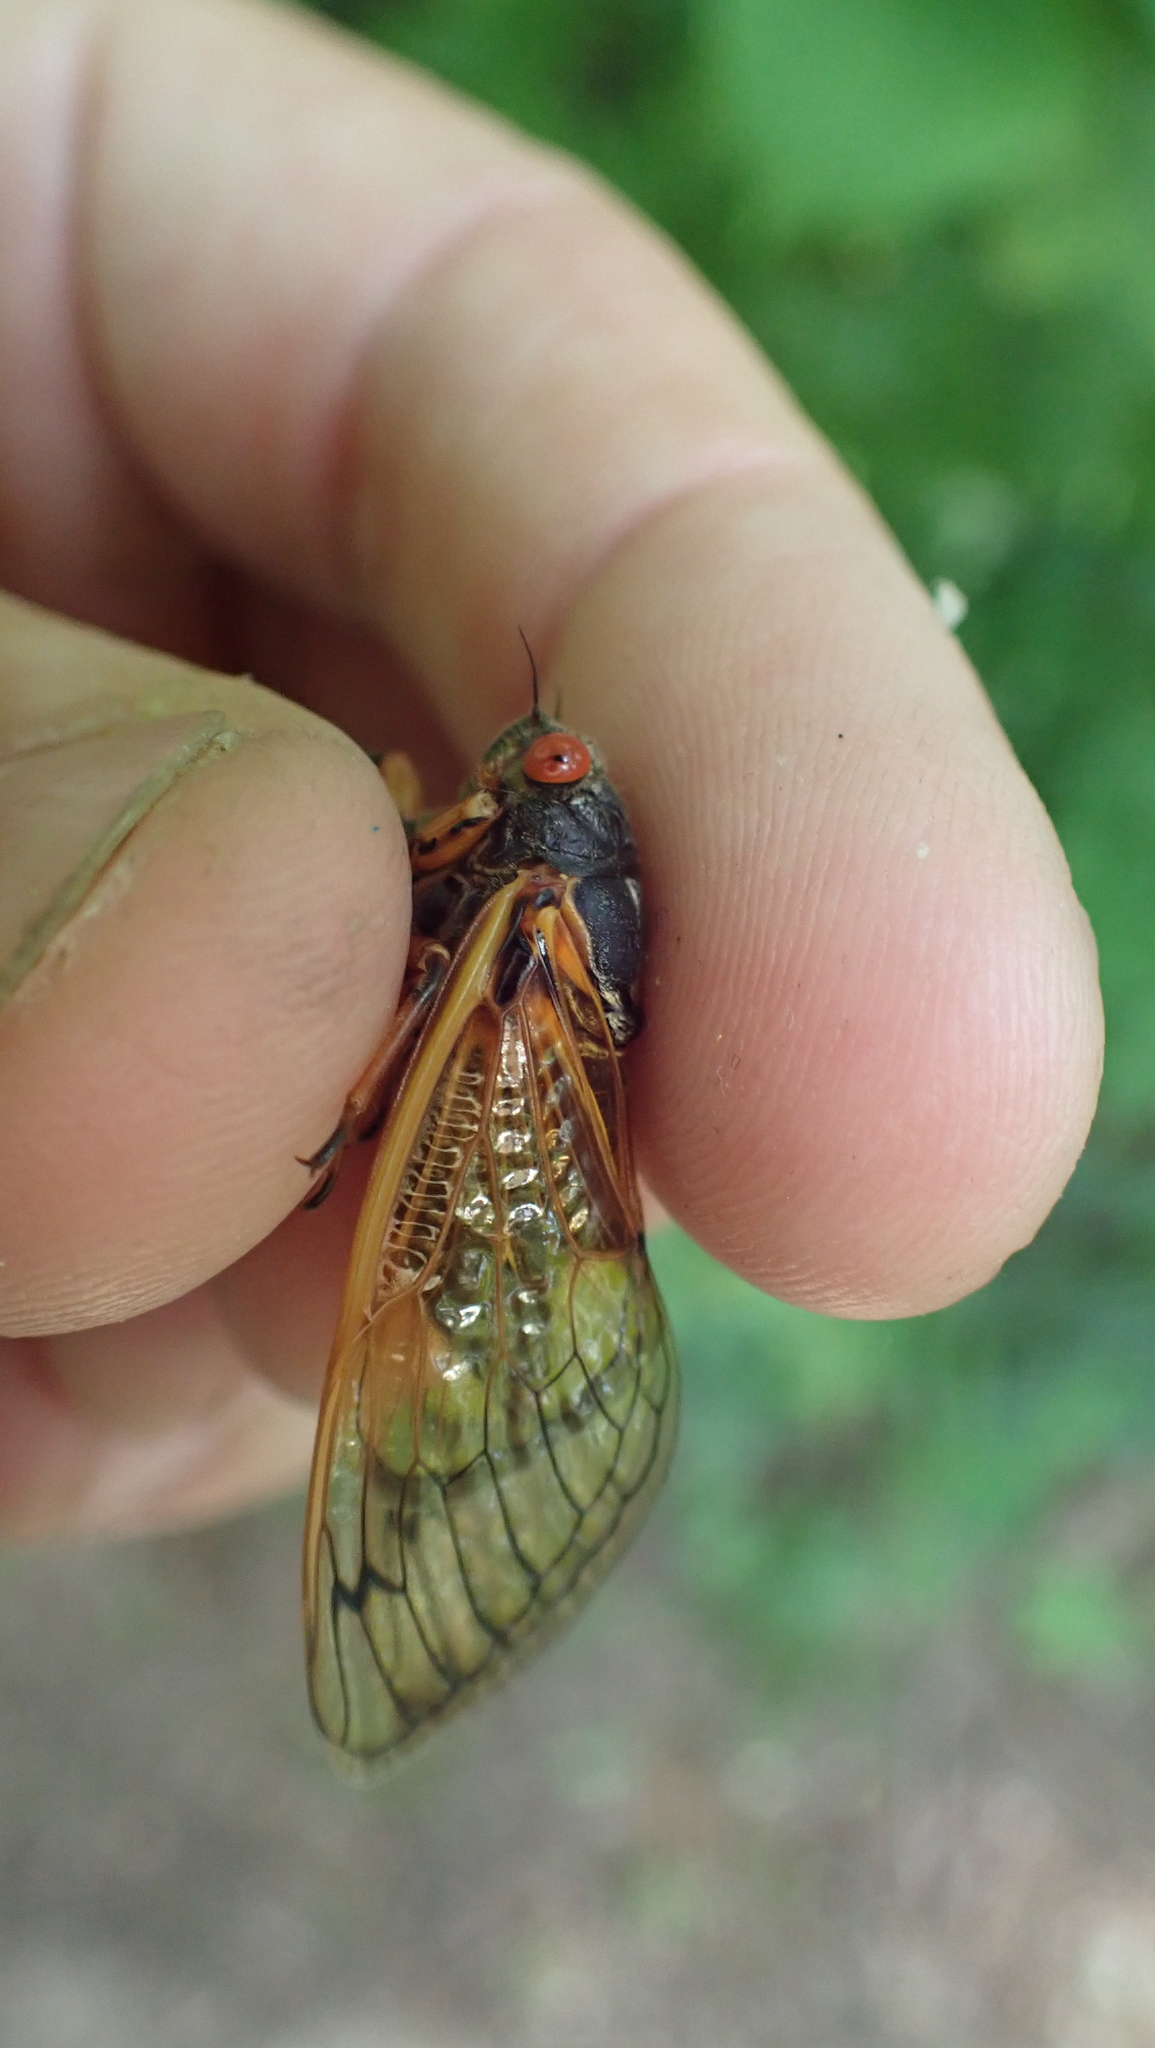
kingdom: Animalia
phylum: Arthropoda
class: Insecta
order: Hemiptera
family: Cicadidae
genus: Magicicada
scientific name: Magicicada cassini
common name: Cassin's 17-year cicada
